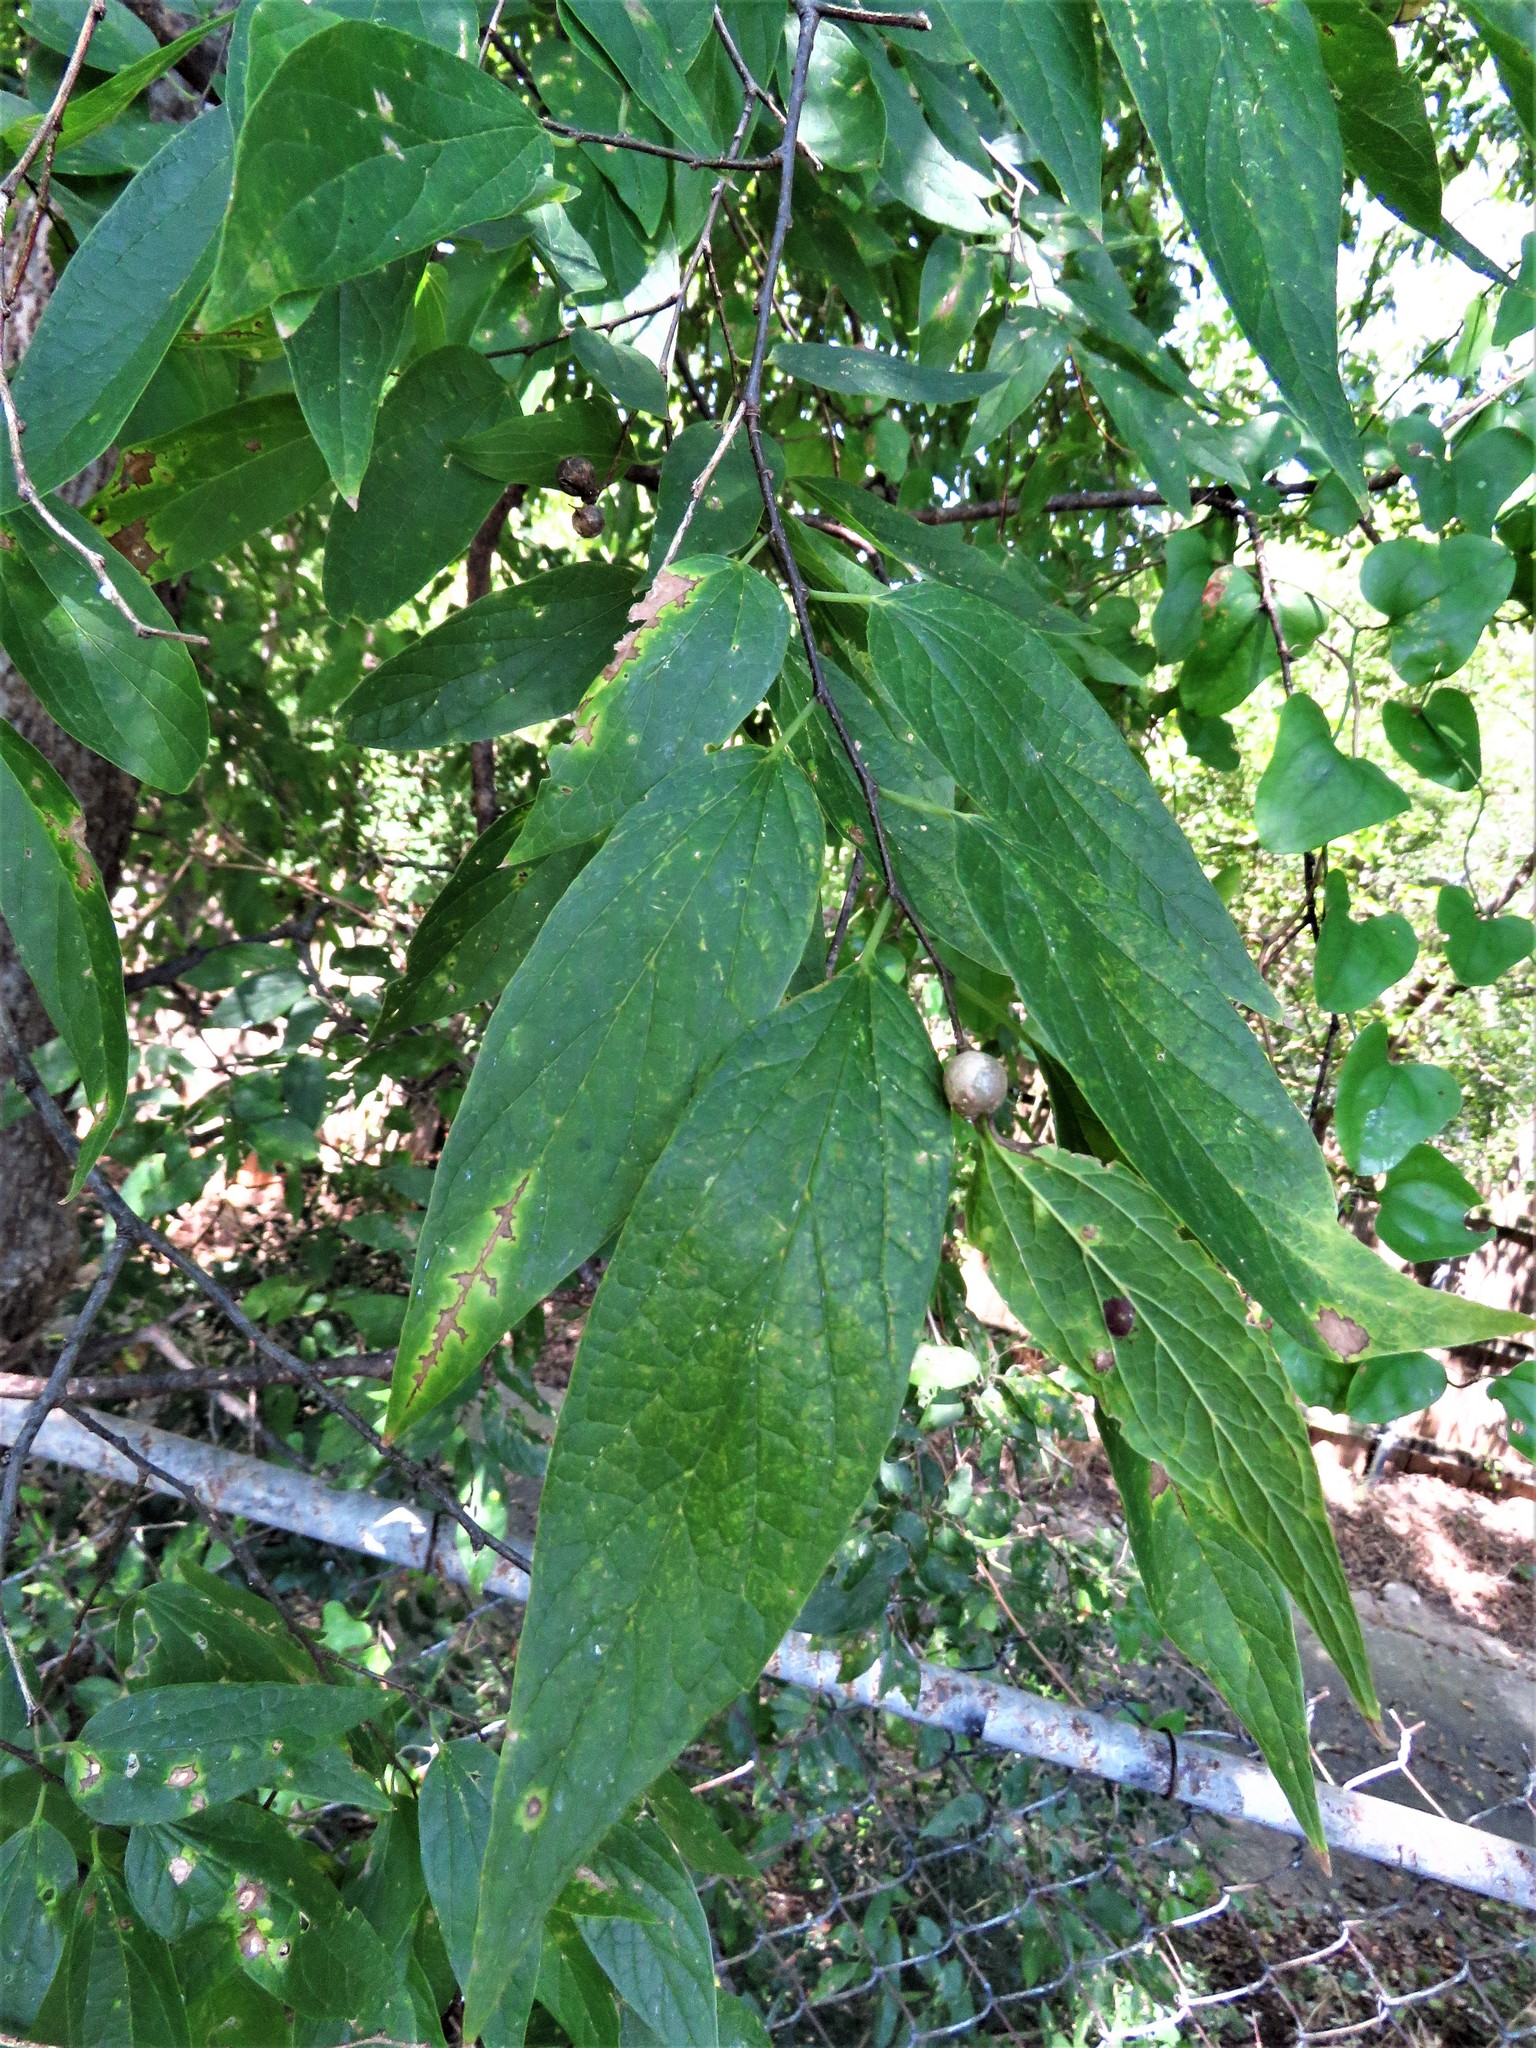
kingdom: Plantae
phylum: Tracheophyta
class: Magnoliopsida
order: Rosales
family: Cannabaceae
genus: Celtis
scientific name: Celtis laevigata
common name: Sugarberry
